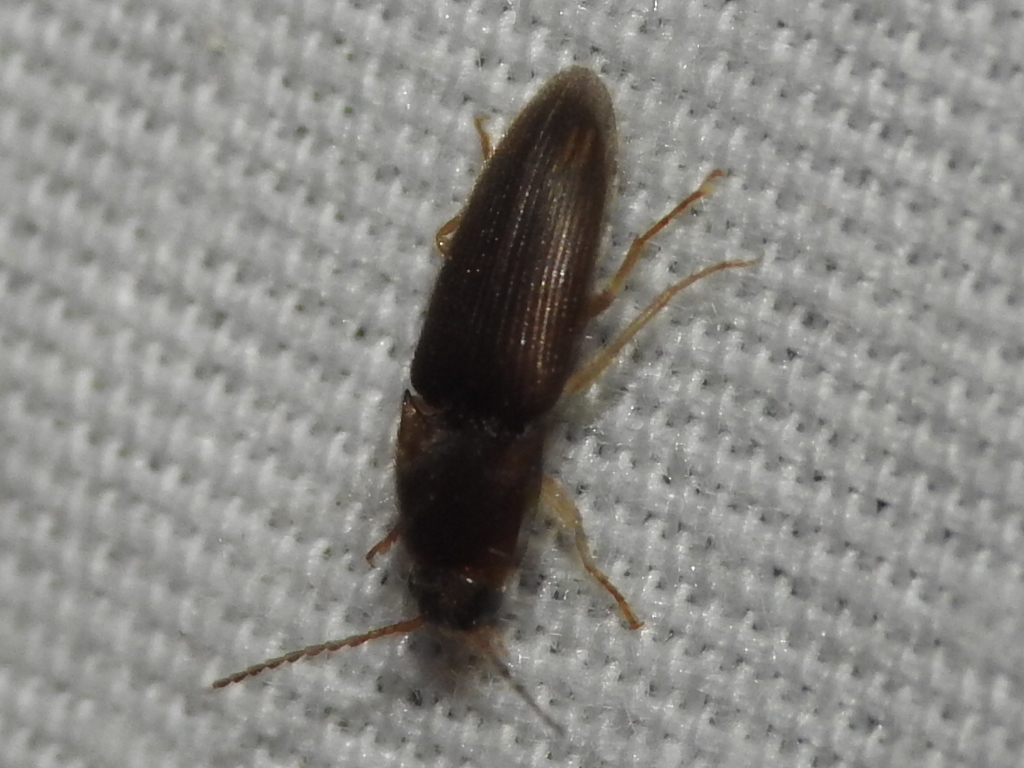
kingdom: Animalia
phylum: Arthropoda
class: Insecta
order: Coleoptera
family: Elateridae
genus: Monocrepidius
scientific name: Monocrepidius
